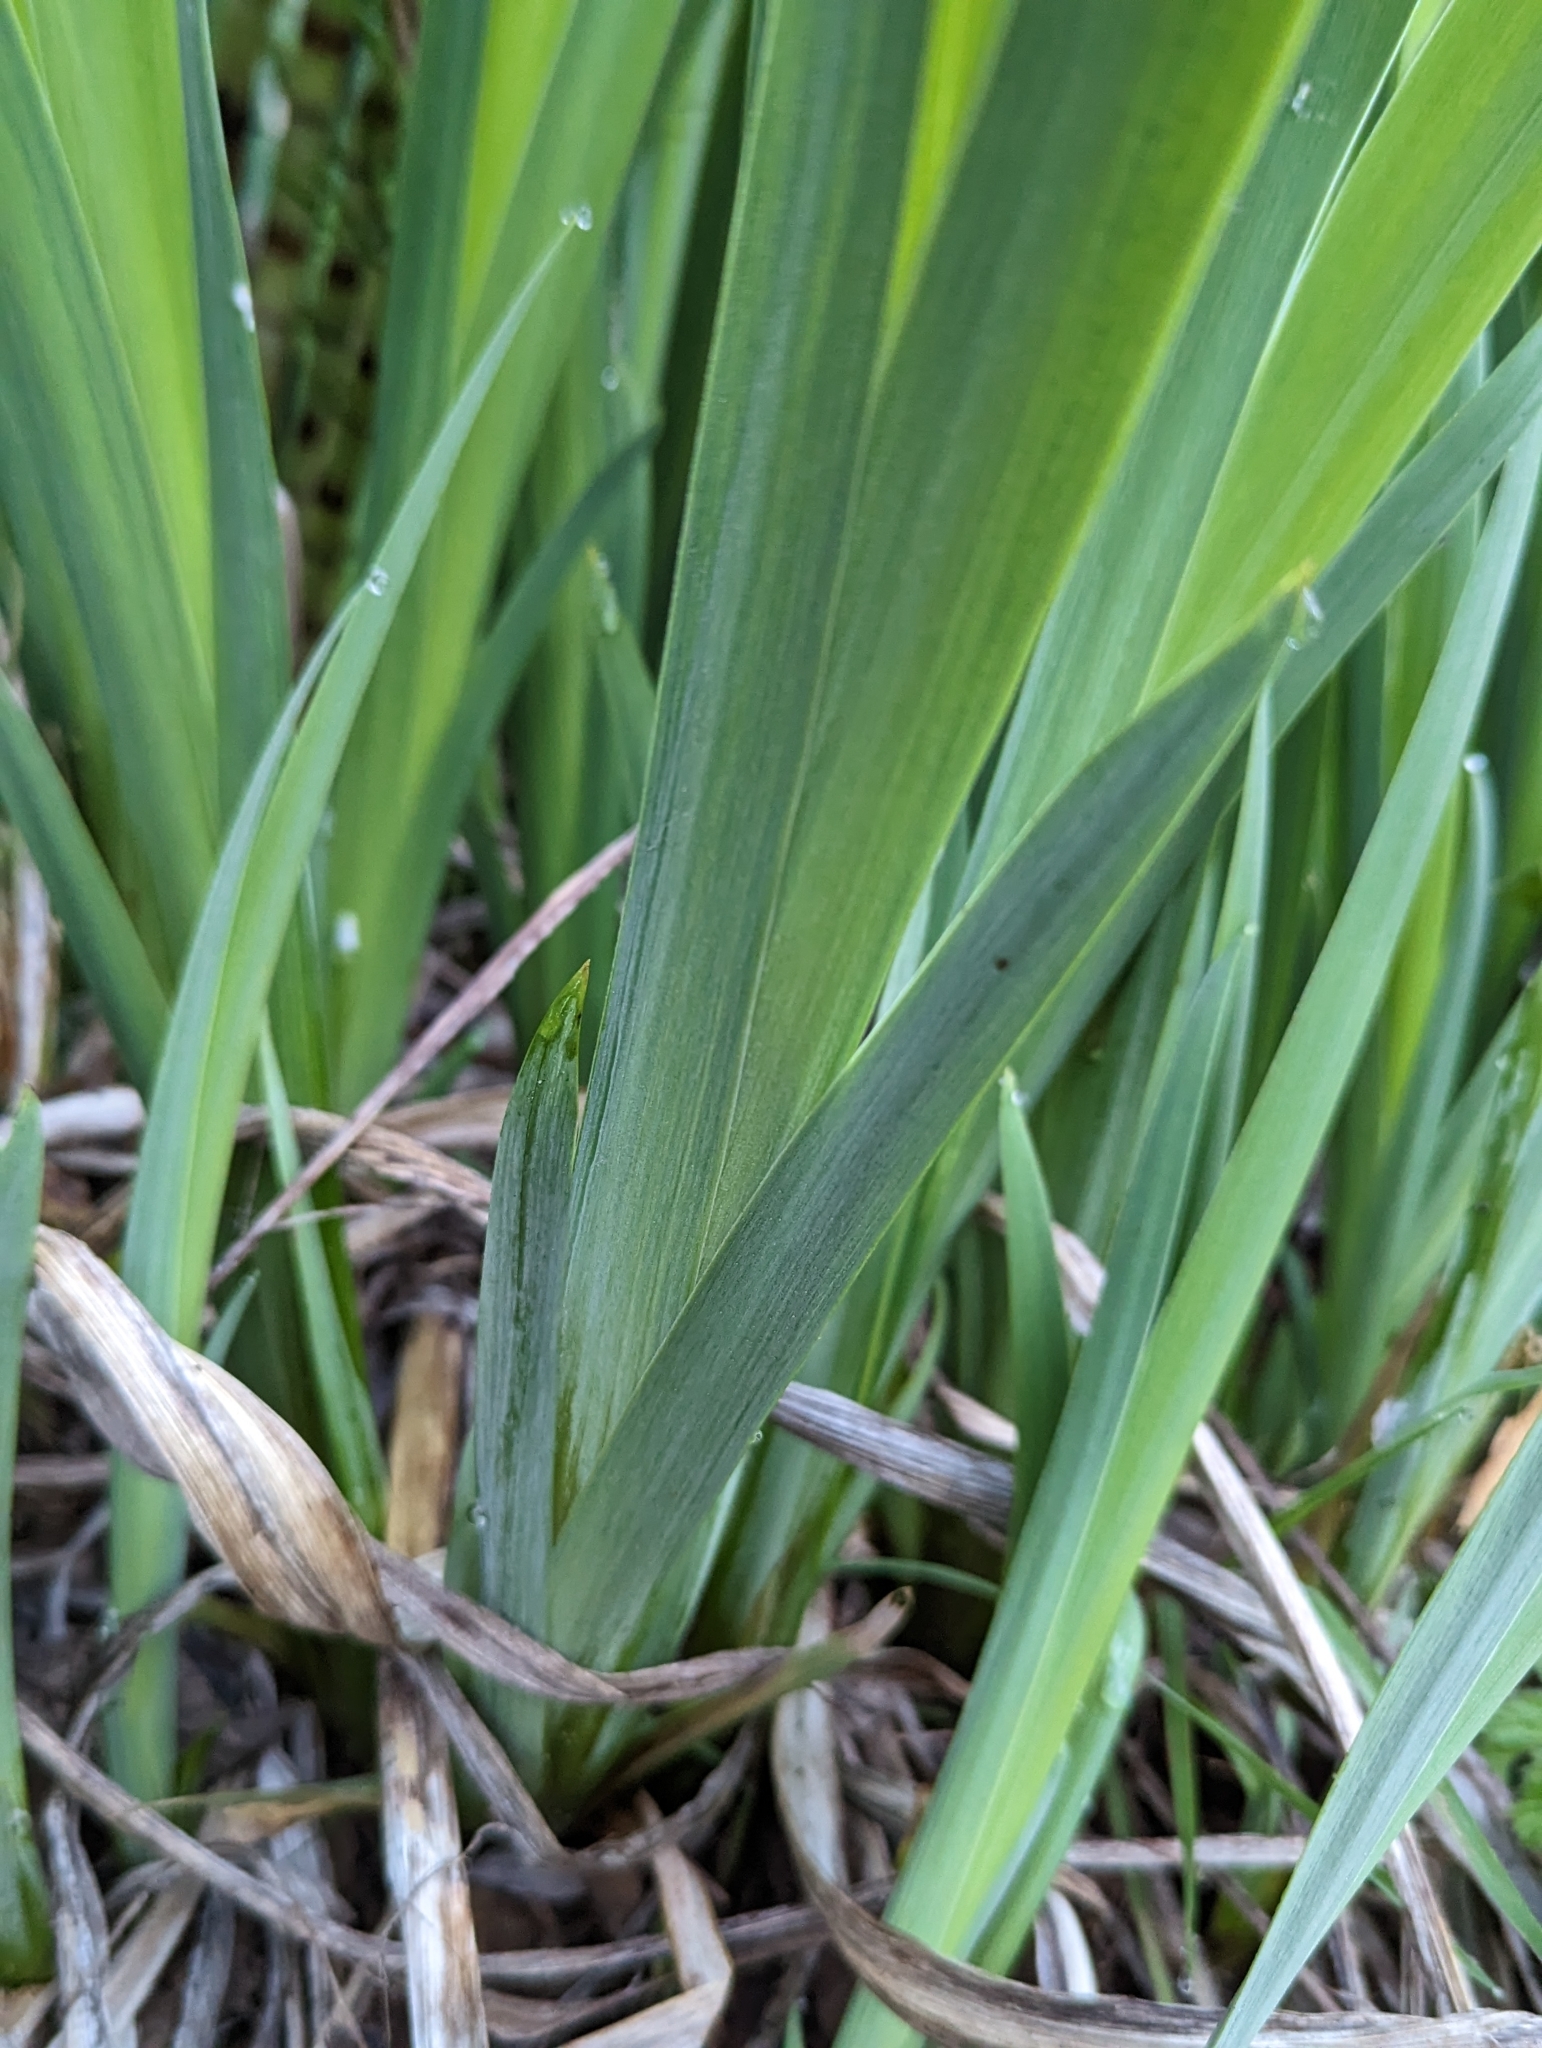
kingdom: Plantae
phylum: Tracheophyta
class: Liliopsida
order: Asparagales
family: Iridaceae
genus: Iris
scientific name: Iris pseudacorus
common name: Yellow flag
